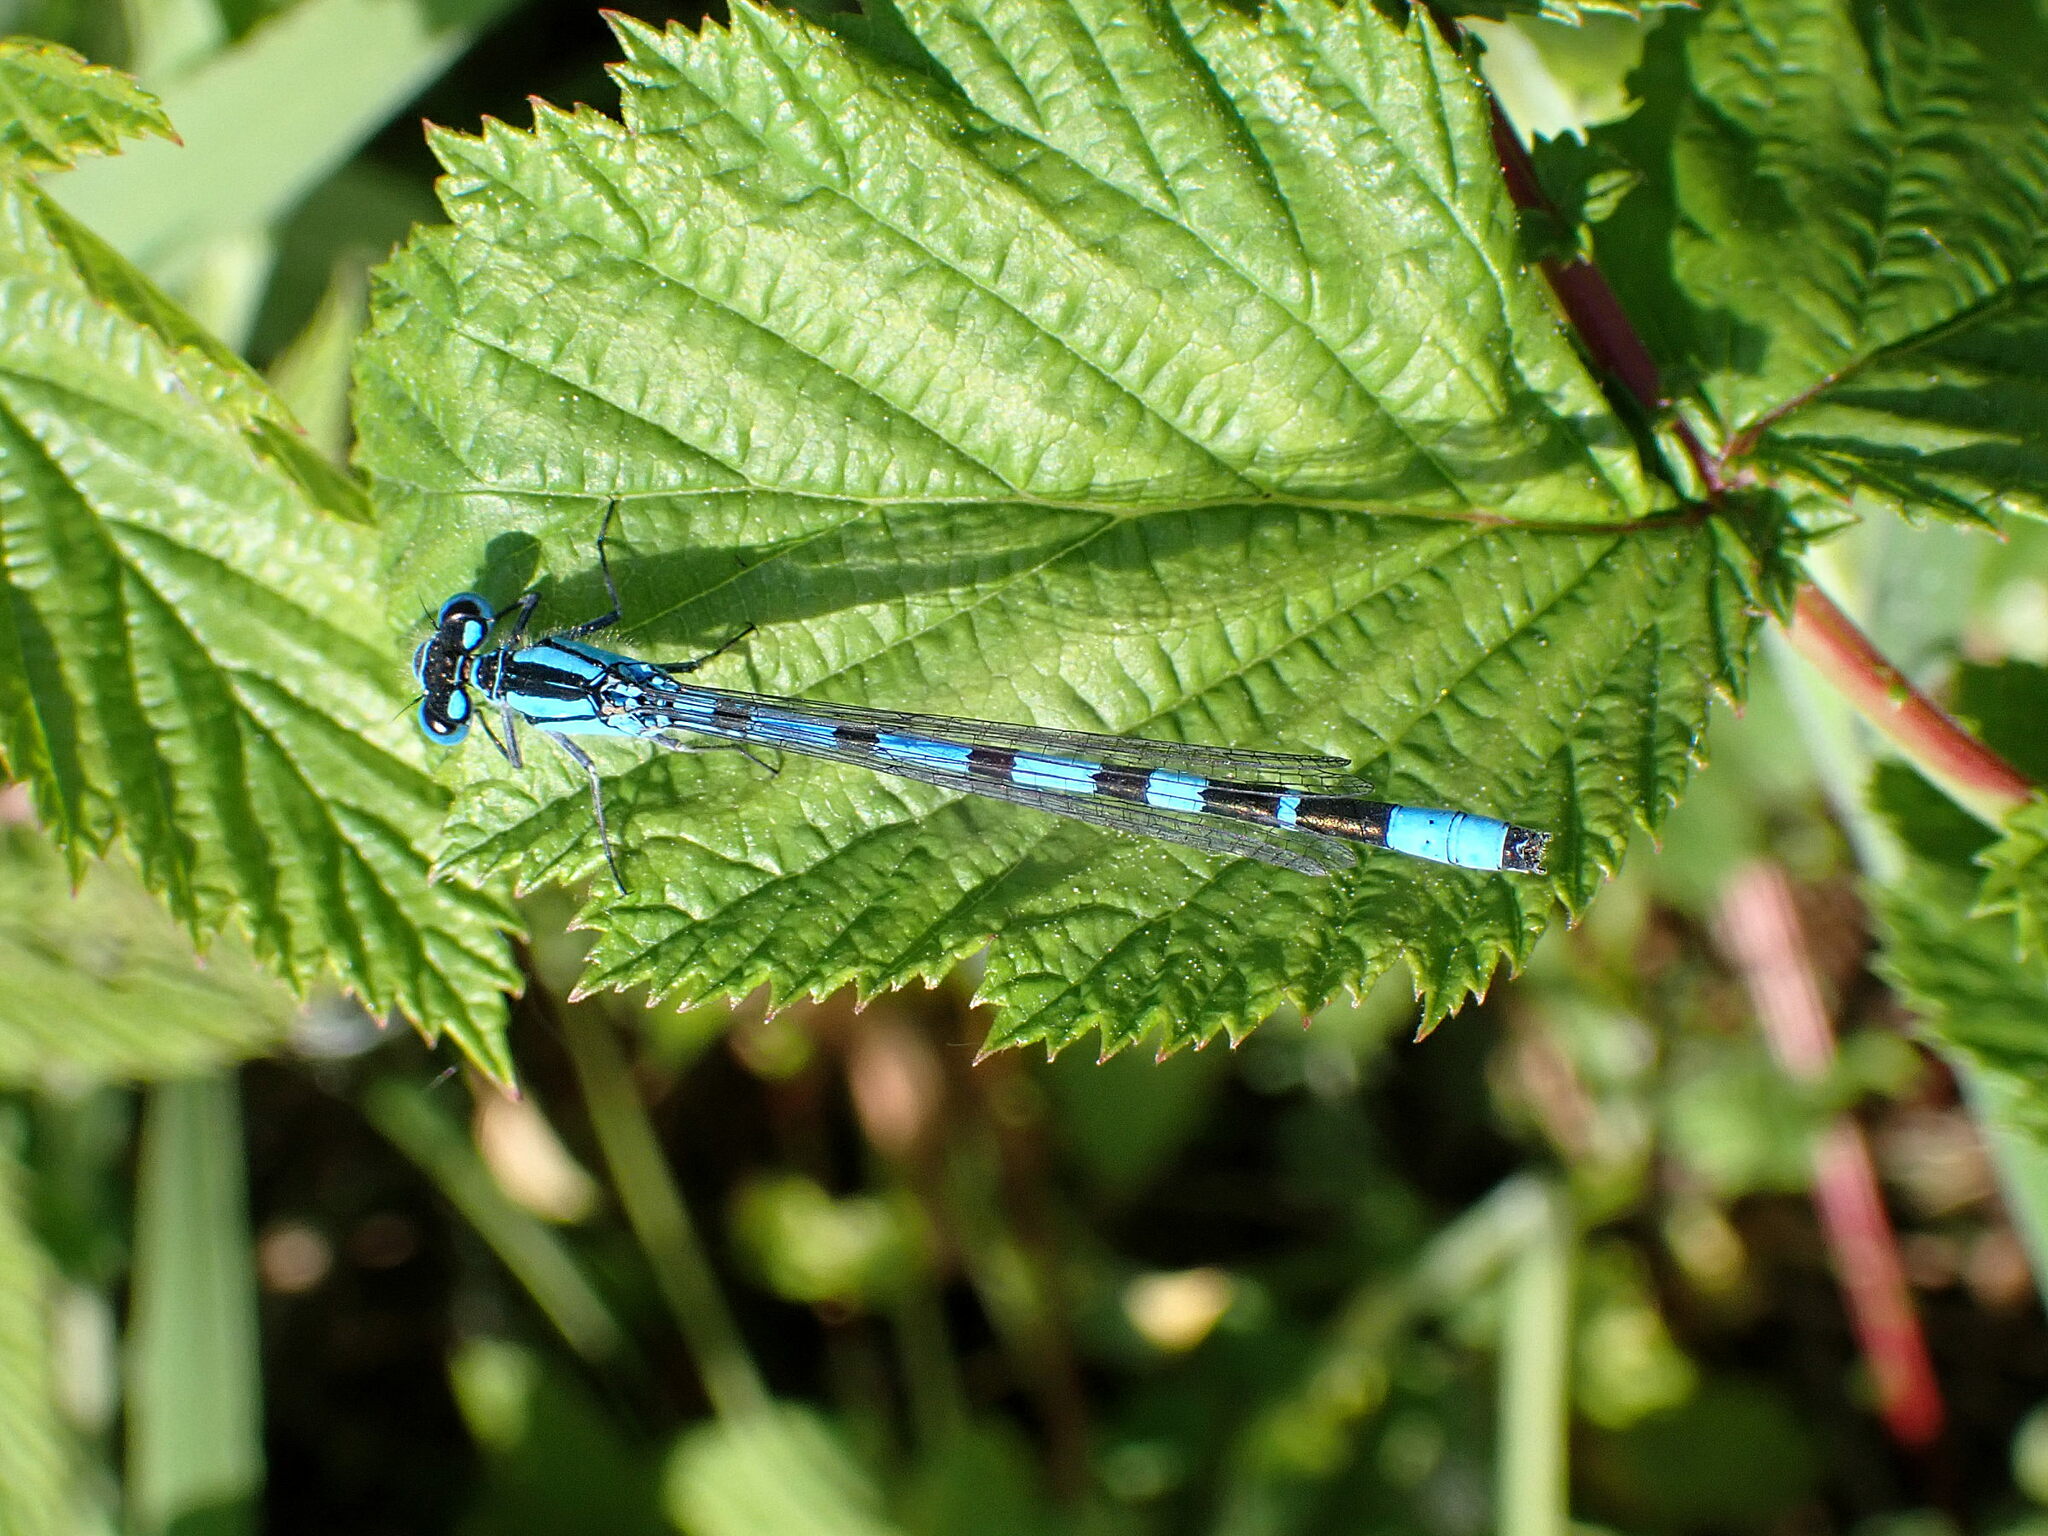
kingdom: Animalia
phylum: Arthropoda
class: Insecta
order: Odonata
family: Coenagrionidae
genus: Enallagma
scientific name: Enallagma cyathigerum
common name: Common blue damselfly
